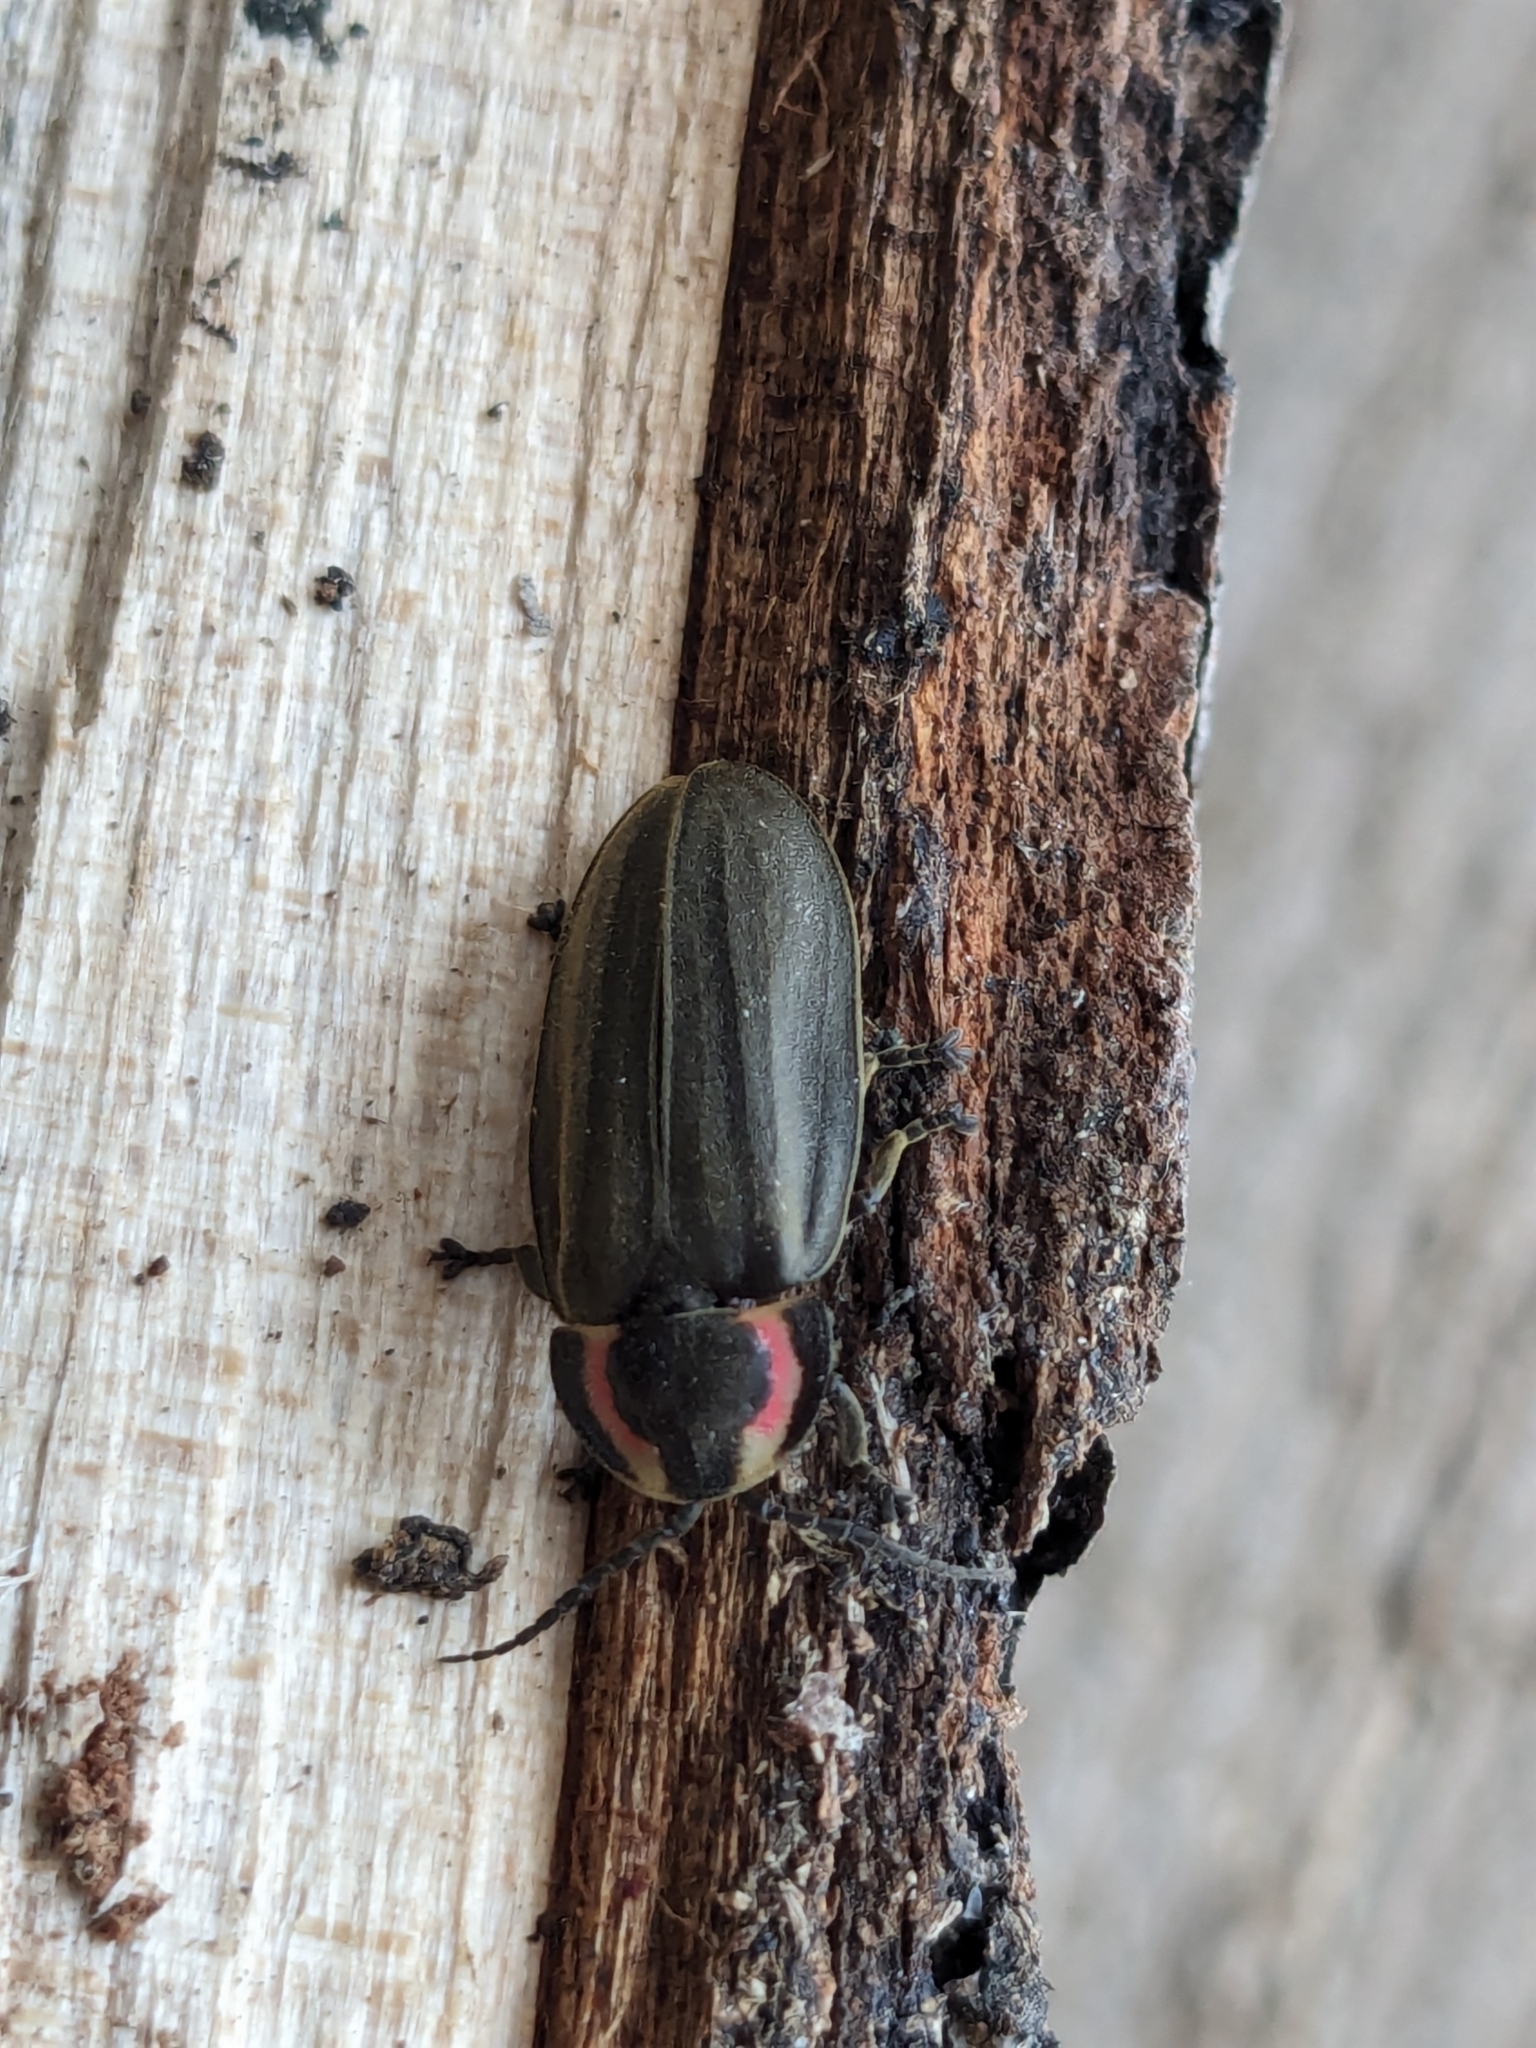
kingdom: Animalia
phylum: Arthropoda
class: Insecta
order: Coleoptera
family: Lampyridae
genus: Photinus
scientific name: Photinus corrusca
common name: Winter firefly
